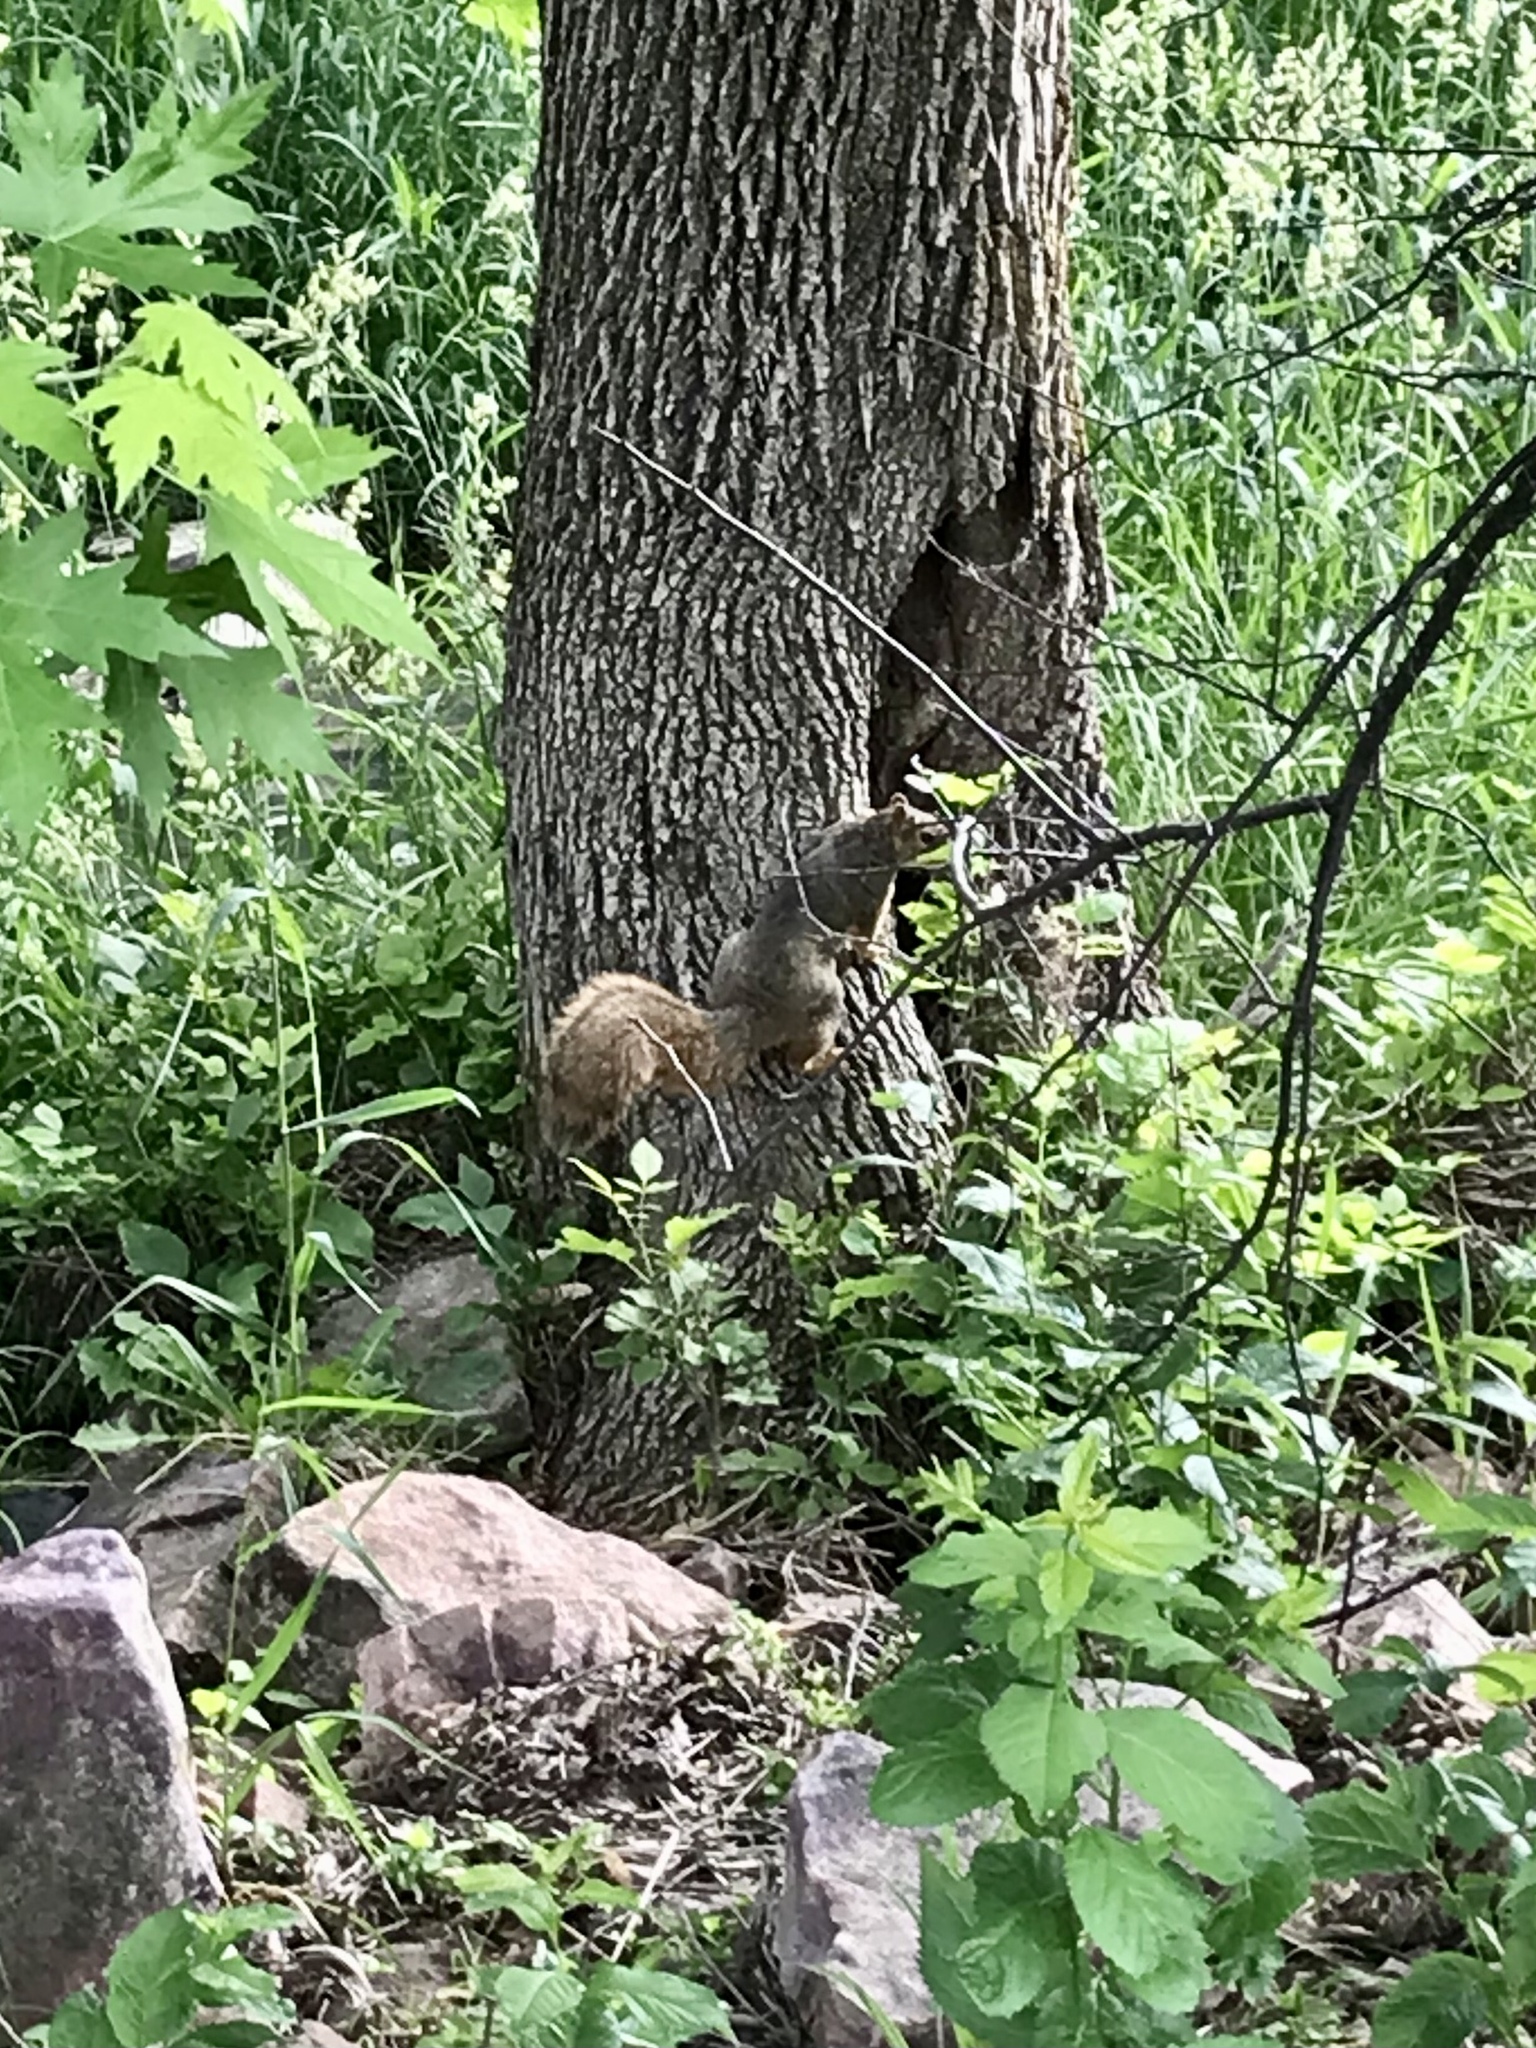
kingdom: Animalia
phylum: Chordata
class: Mammalia
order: Rodentia
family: Sciuridae
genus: Sciurus
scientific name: Sciurus niger
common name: Fox squirrel
